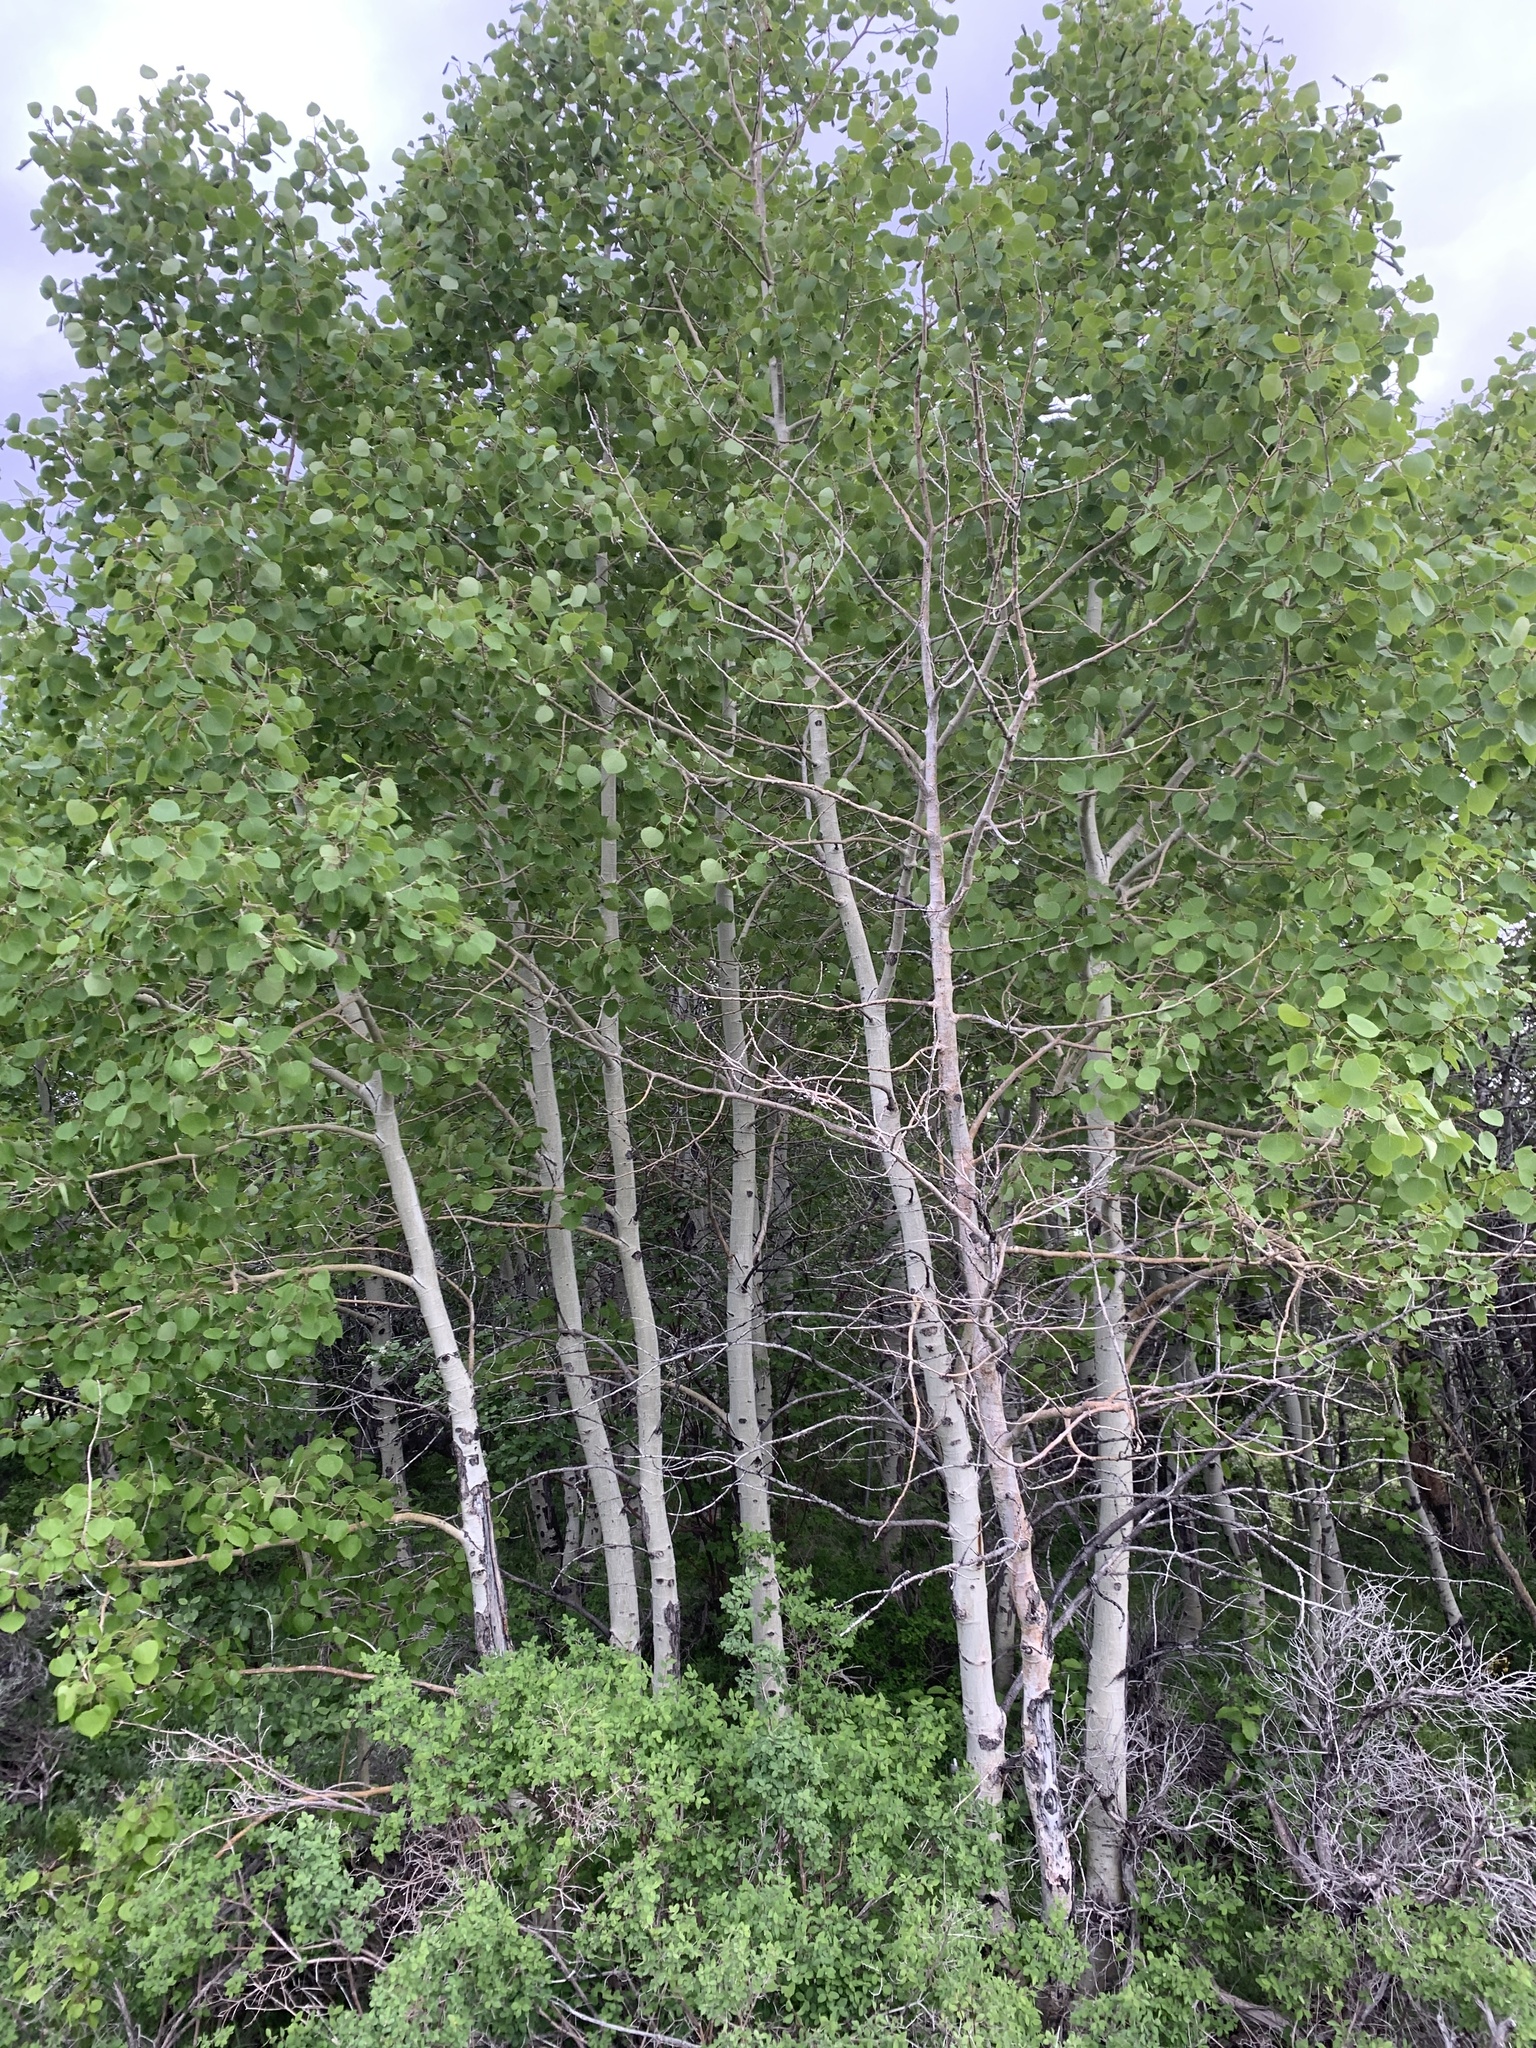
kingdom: Plantae
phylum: Tracheophyta
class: Magnoliopsida
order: Malpighiales
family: Salicaceae
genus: Populus
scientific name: Populus tremuloides
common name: Quaking aspen
